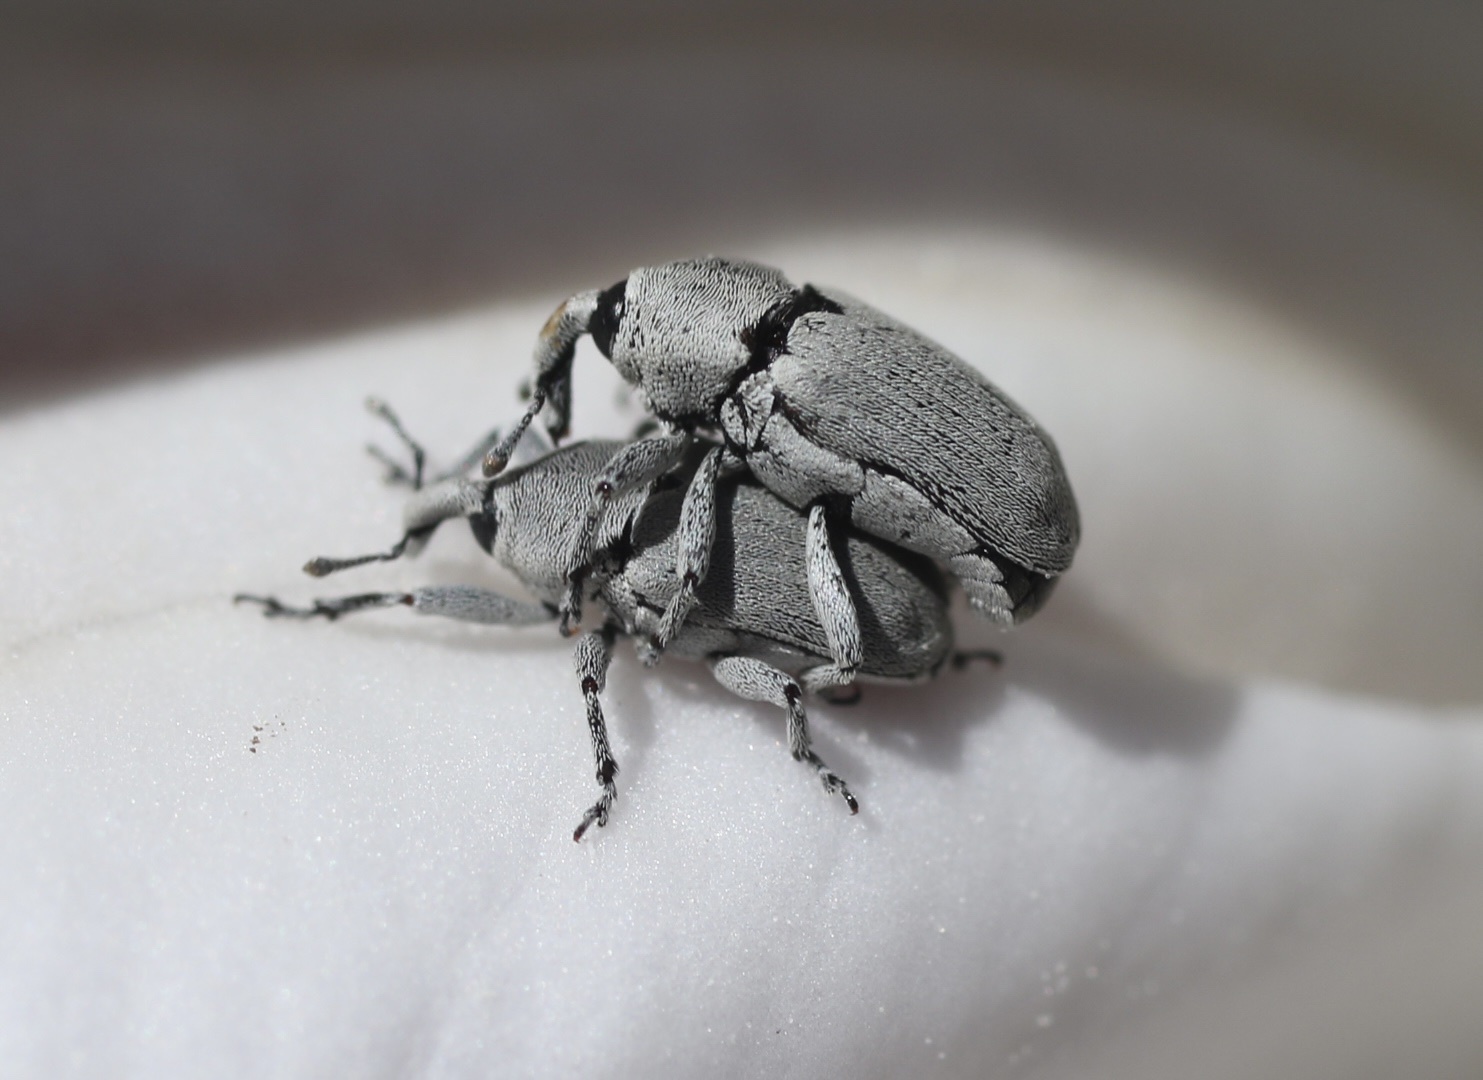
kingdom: Animalia
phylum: Arthropoda
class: Insecta
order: Coleoptera
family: Curculionidae
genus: Trichobaris
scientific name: Trichobaris compacta
